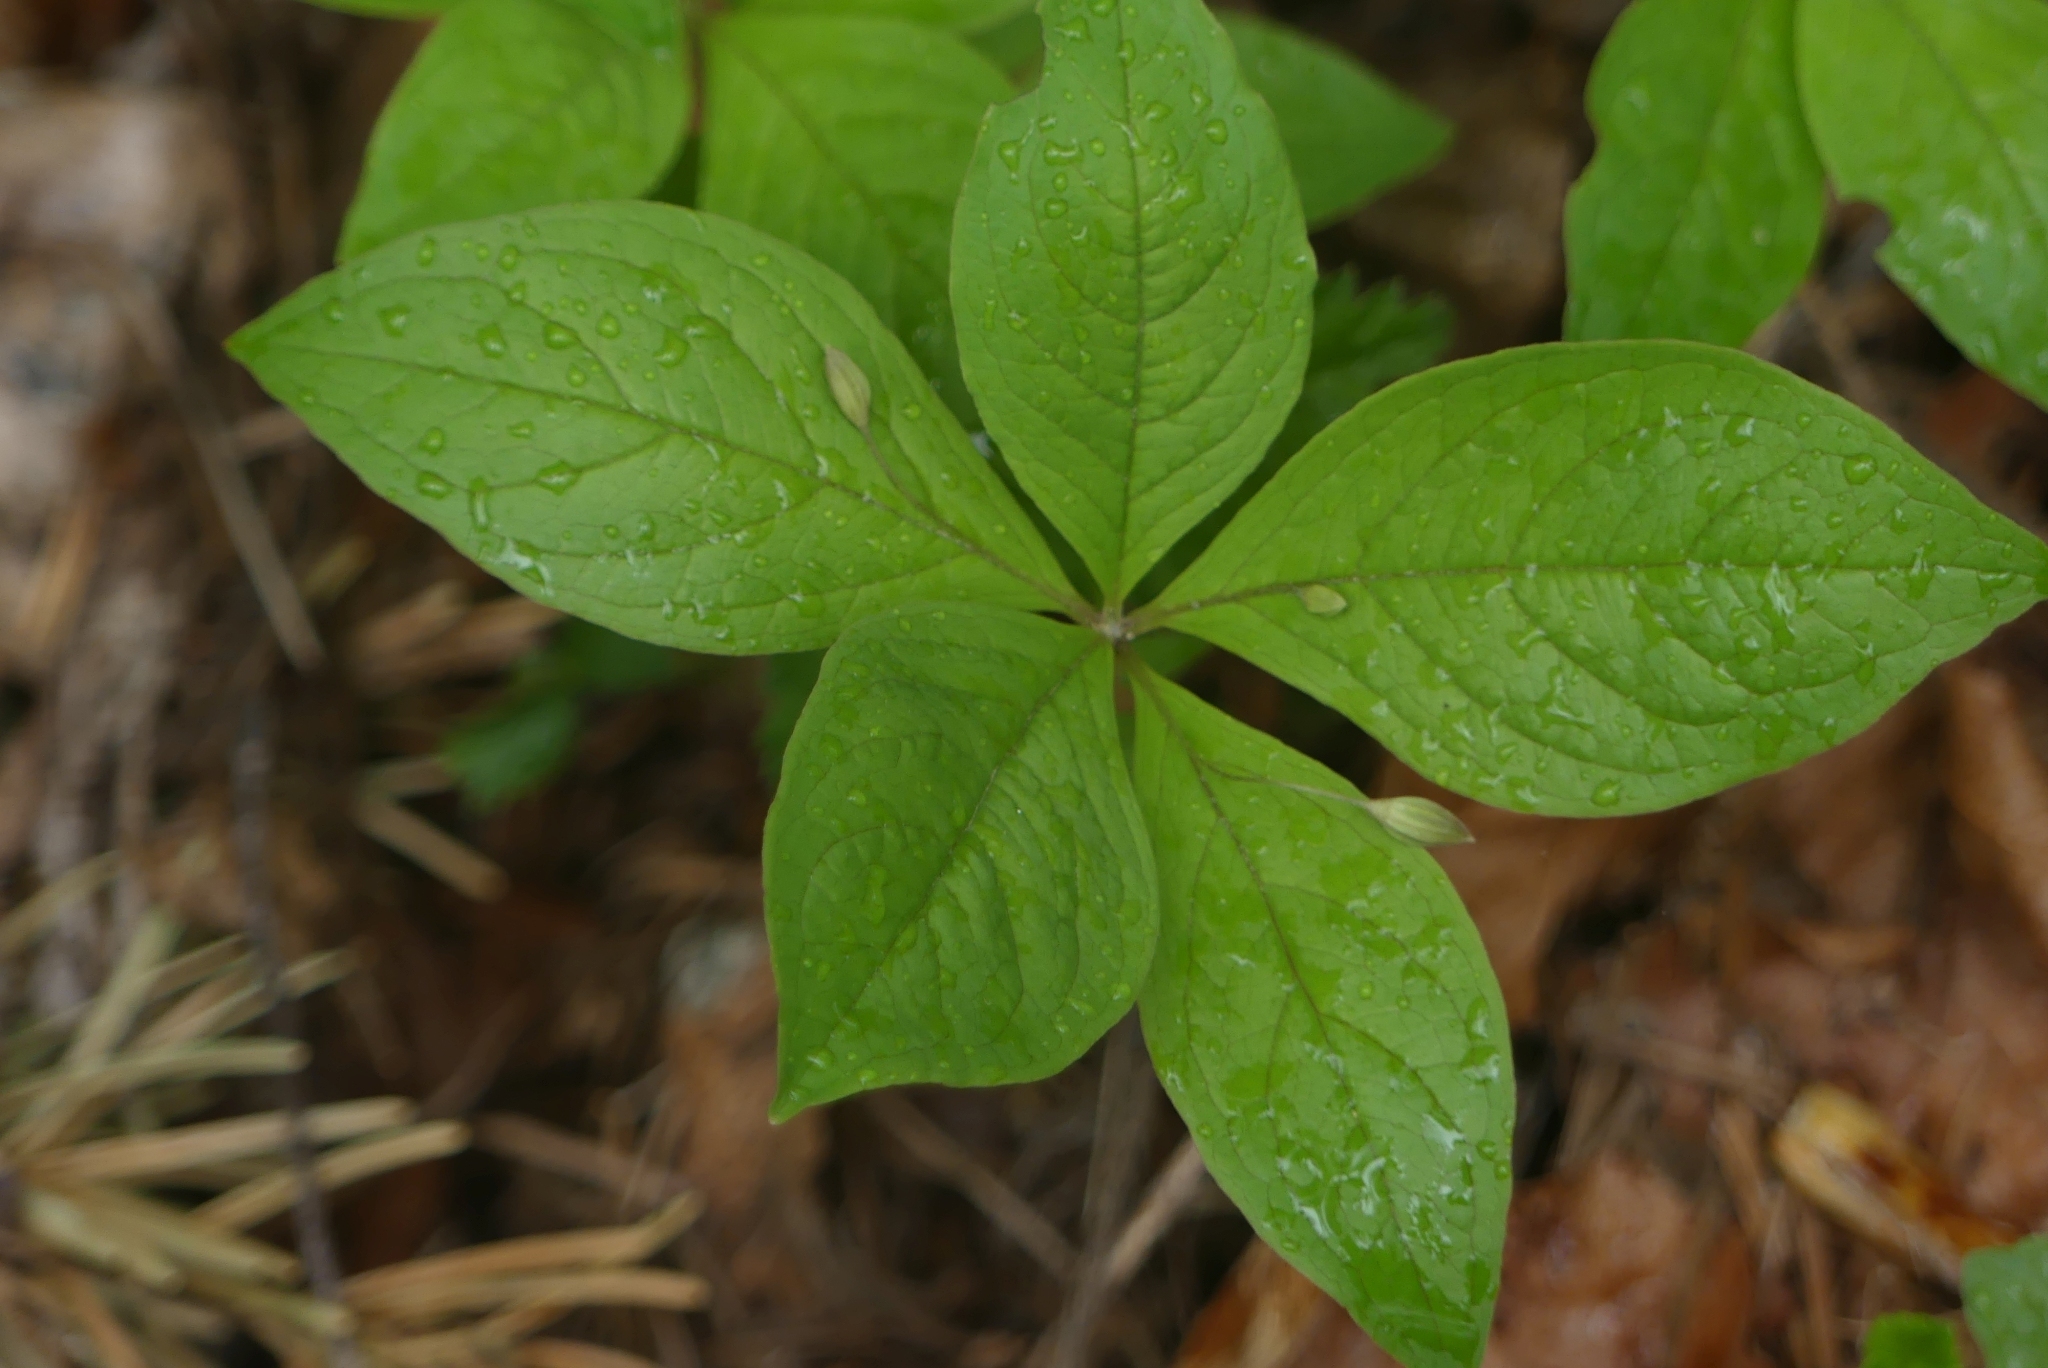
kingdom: Plantae
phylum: Tracheophyta
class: Magnoliopsida
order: Ericales
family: Primulaceae
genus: Lysimachia
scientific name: Lysimachia latifolia
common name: Pacific starflower
